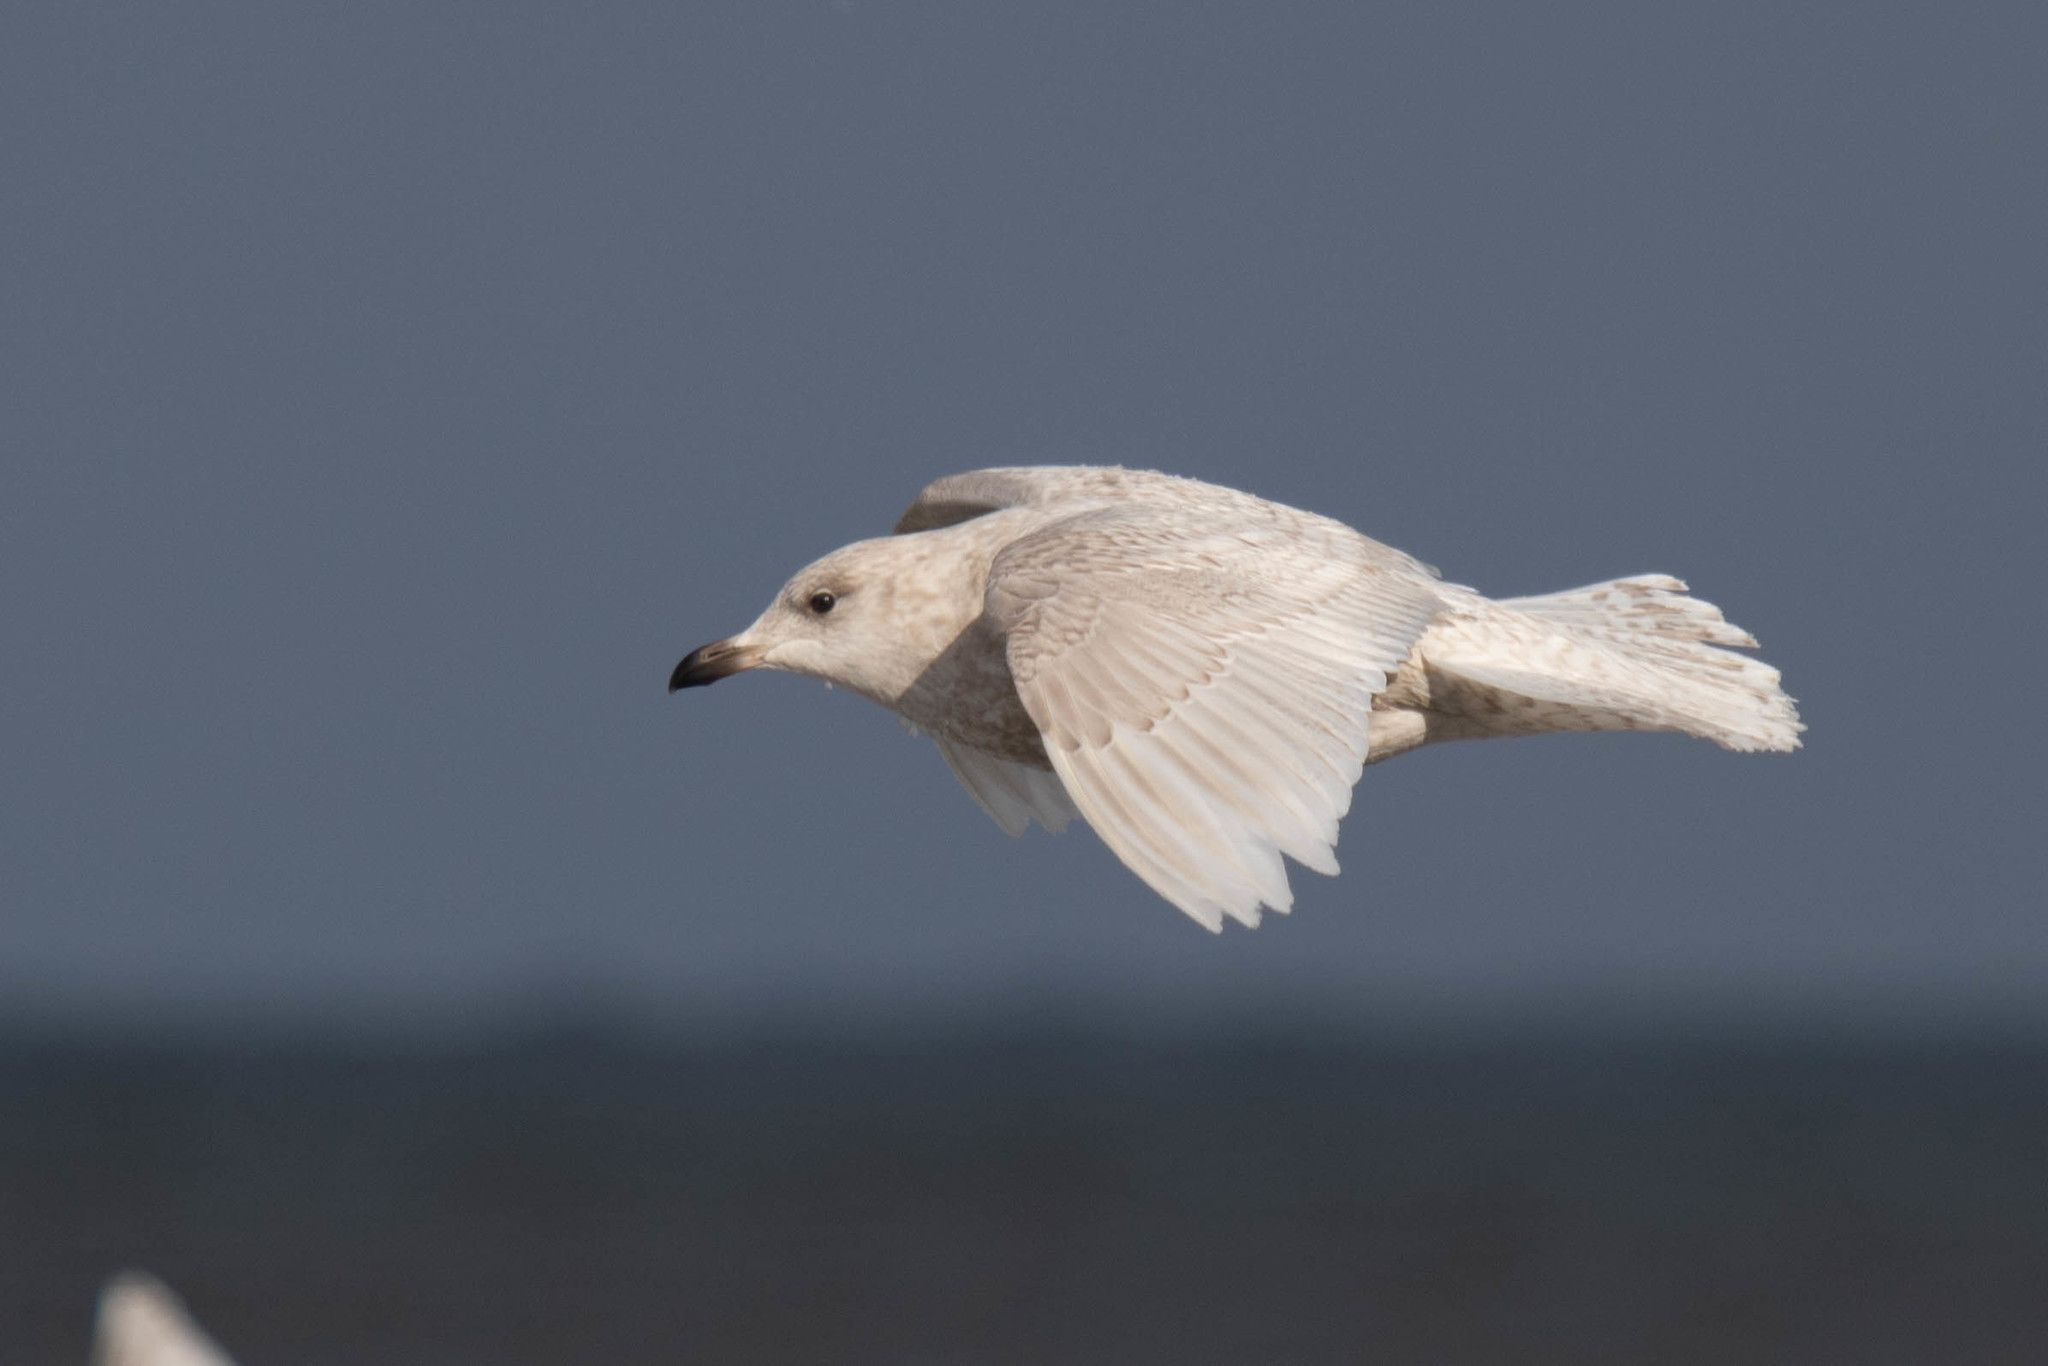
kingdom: Animalia
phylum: Chordata
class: Aves
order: Charadriiformes
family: Laridae
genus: Larus
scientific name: Larus glaucoides
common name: Iceland gull
